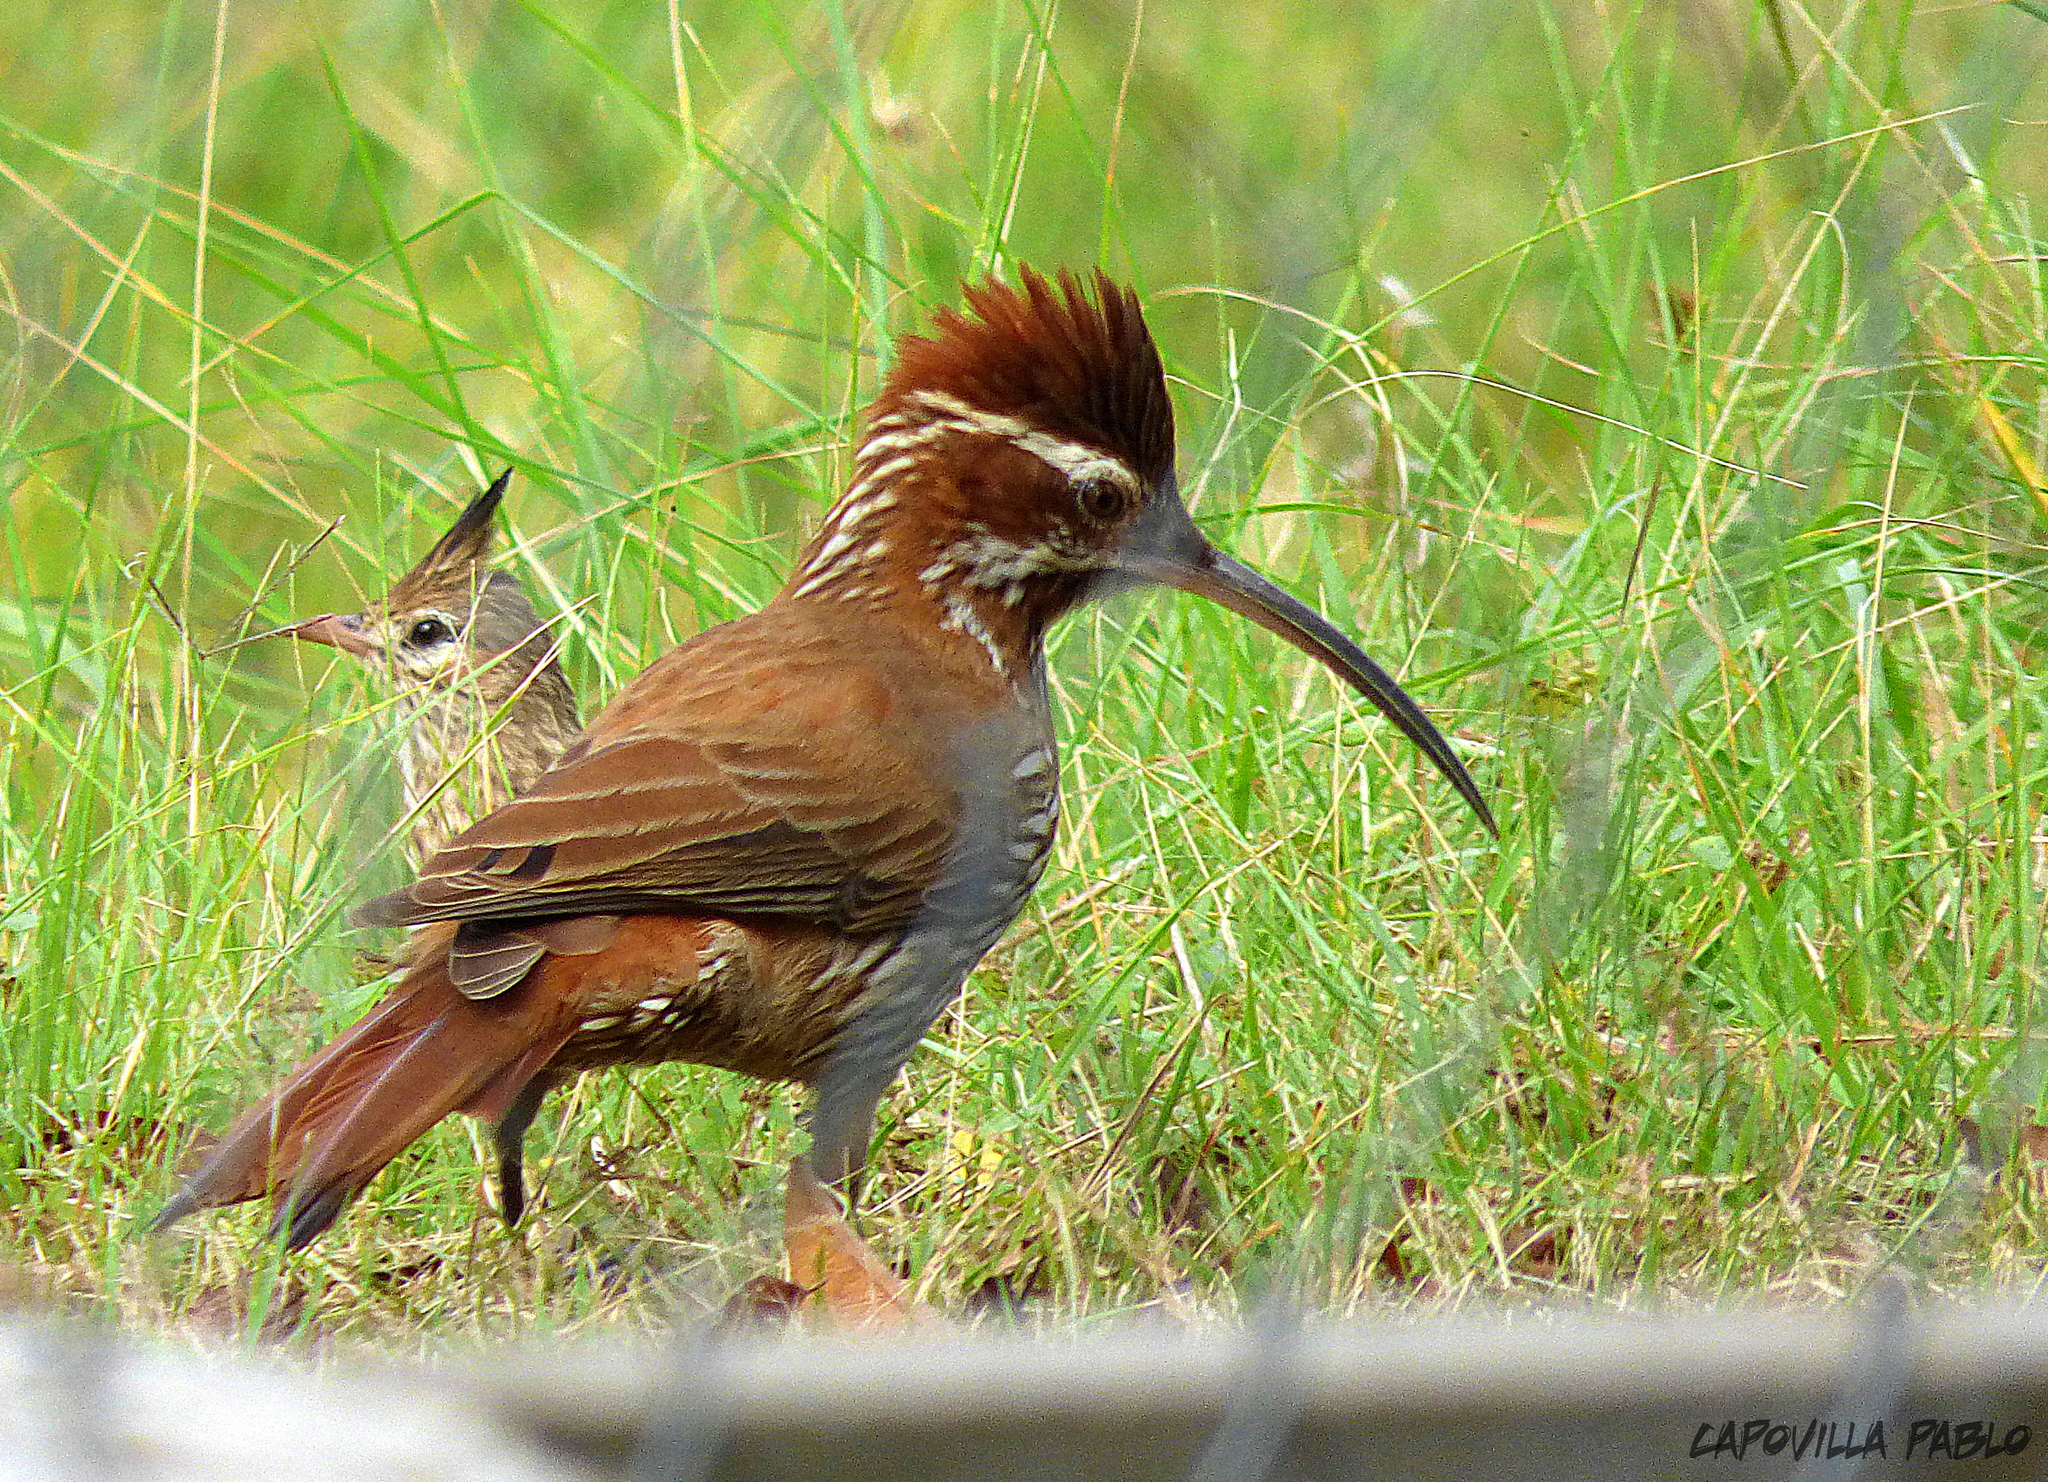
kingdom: Animalia
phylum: Chordata
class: Aves
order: Passeriformes
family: Furnariidae
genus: Drymornis
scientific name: Drymornis bridgesii
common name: Scimitar-billed woodcreeper
